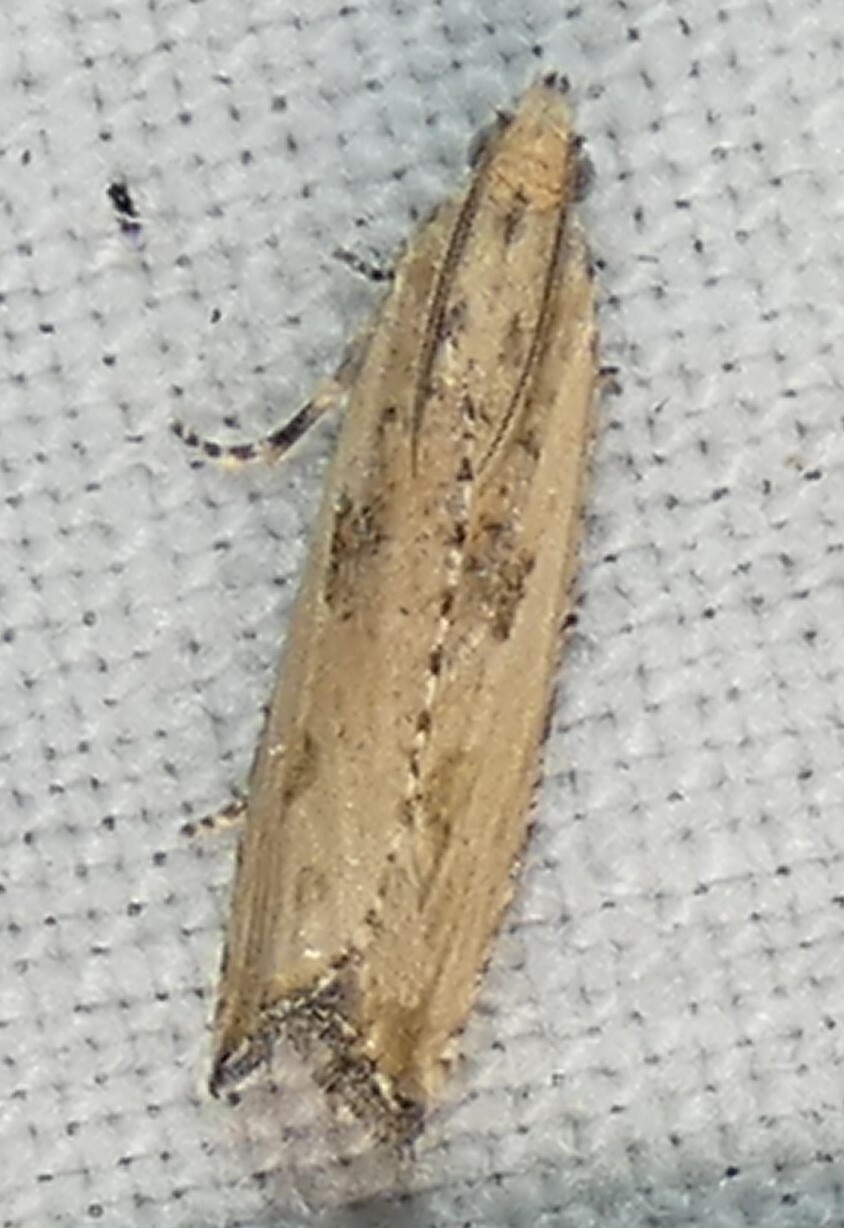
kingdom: Animalia
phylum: Arthropoda
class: Insecta
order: Lepidoptera
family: Tortricidae
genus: Bactra
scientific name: Bactra verutana
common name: Javelin moth
